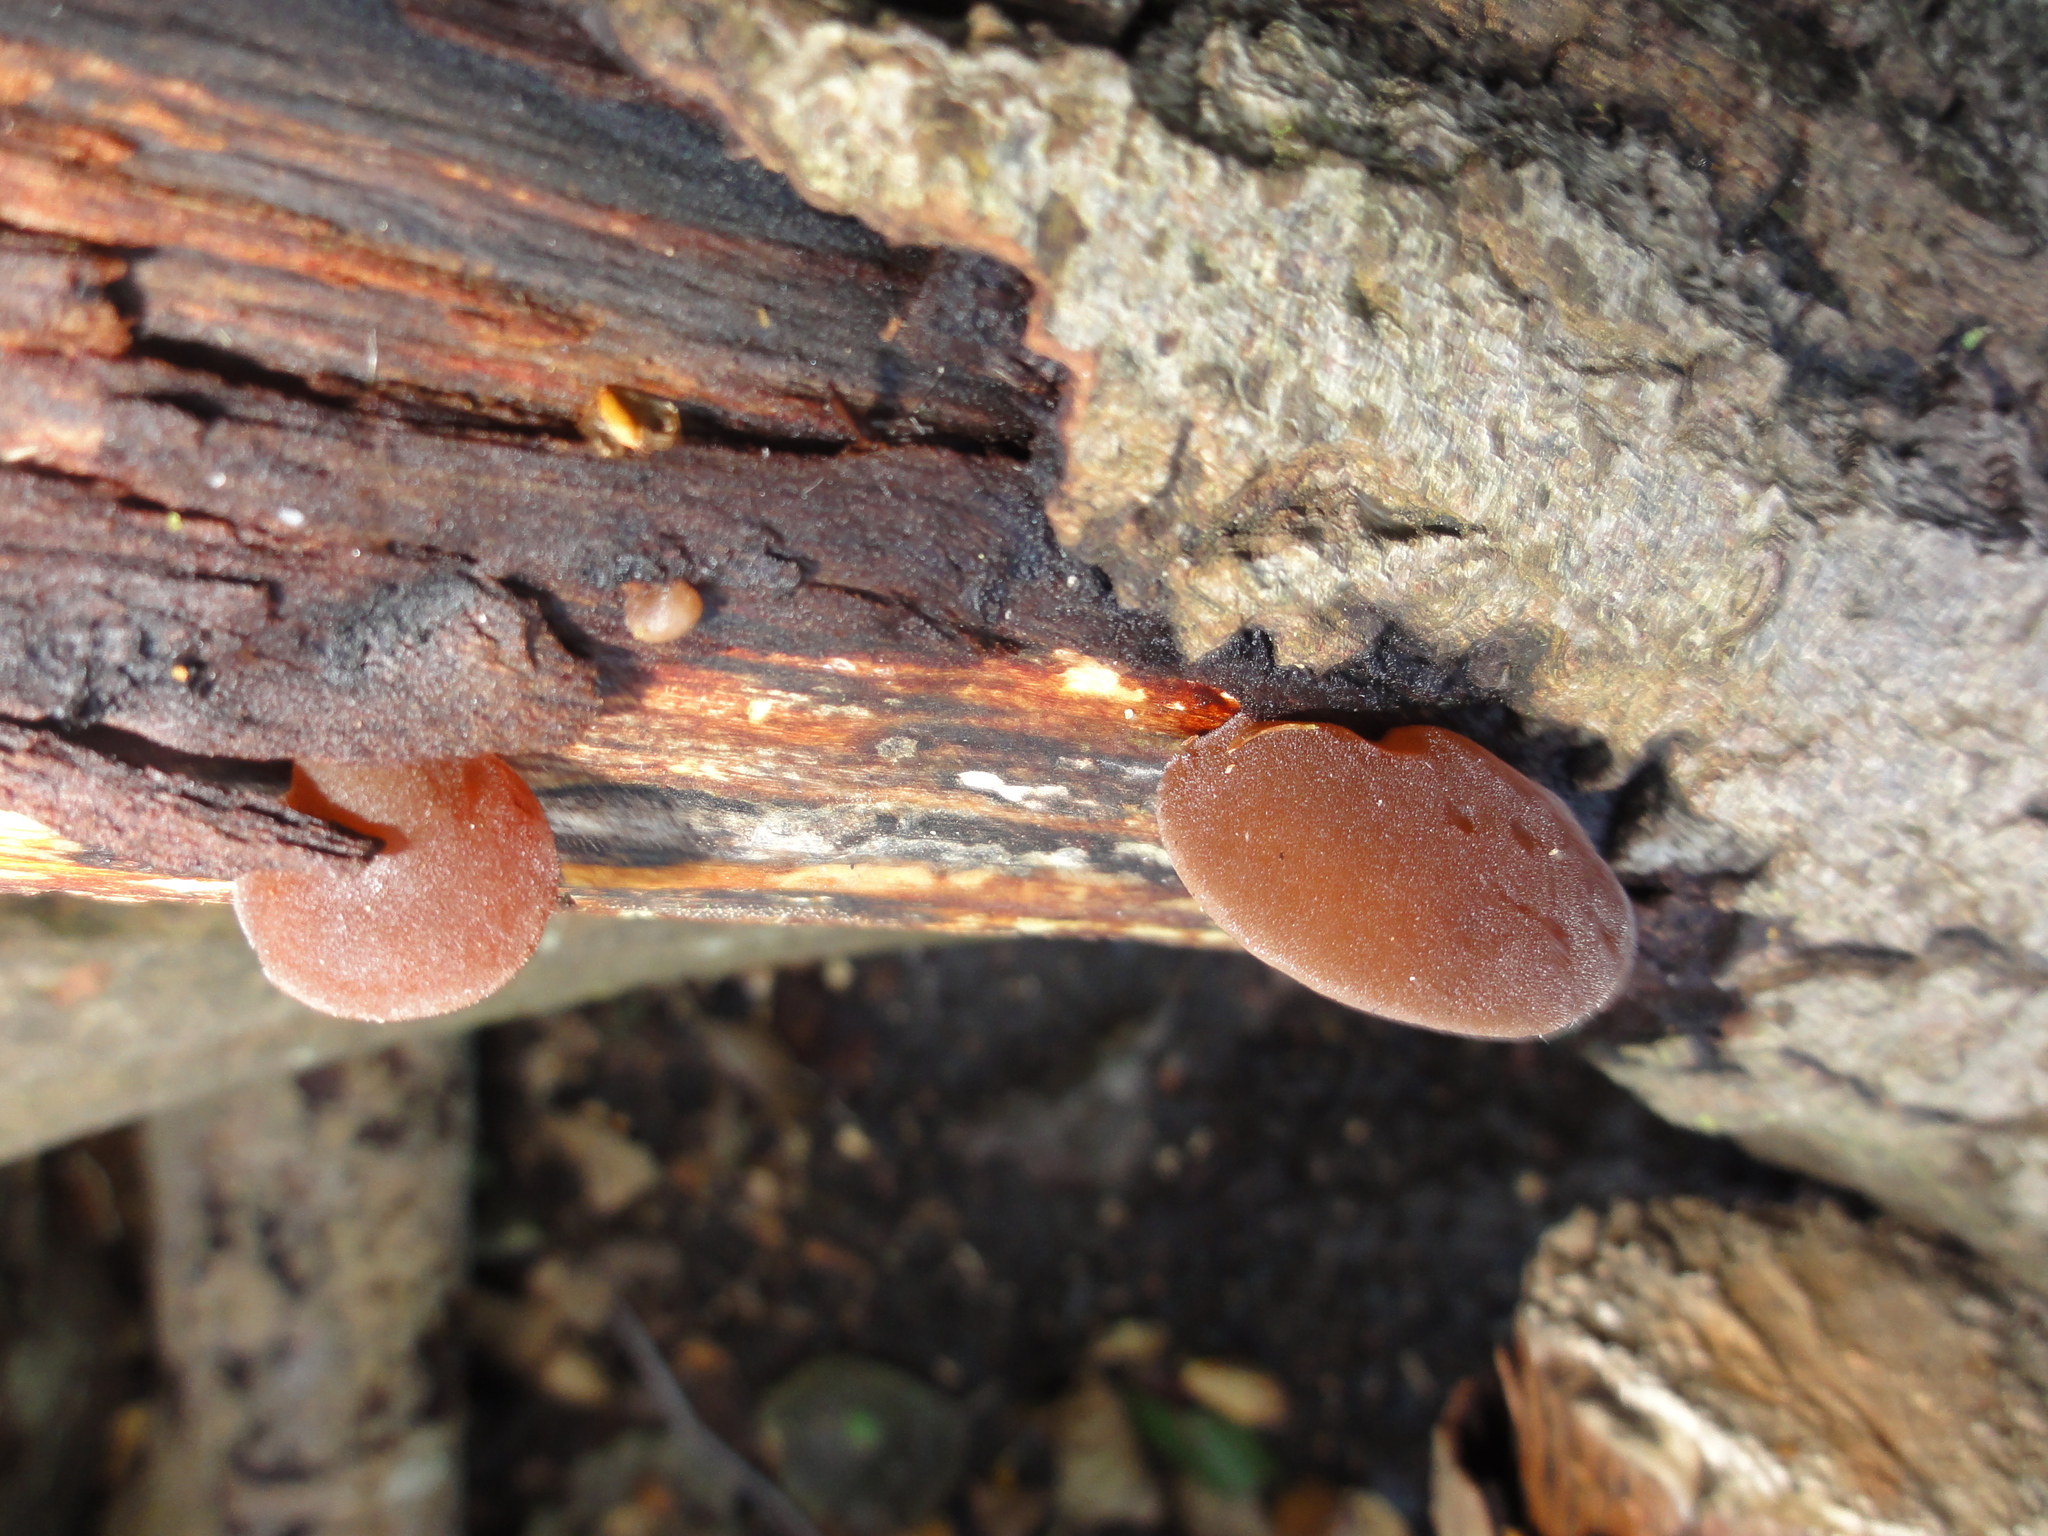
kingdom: Fungi
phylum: Basidiomycota
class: Agaricomycetes
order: Auriculariales
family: Auriculariaceae
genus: Auricularia
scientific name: Auricularia auricula-judae
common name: Jelly ear
